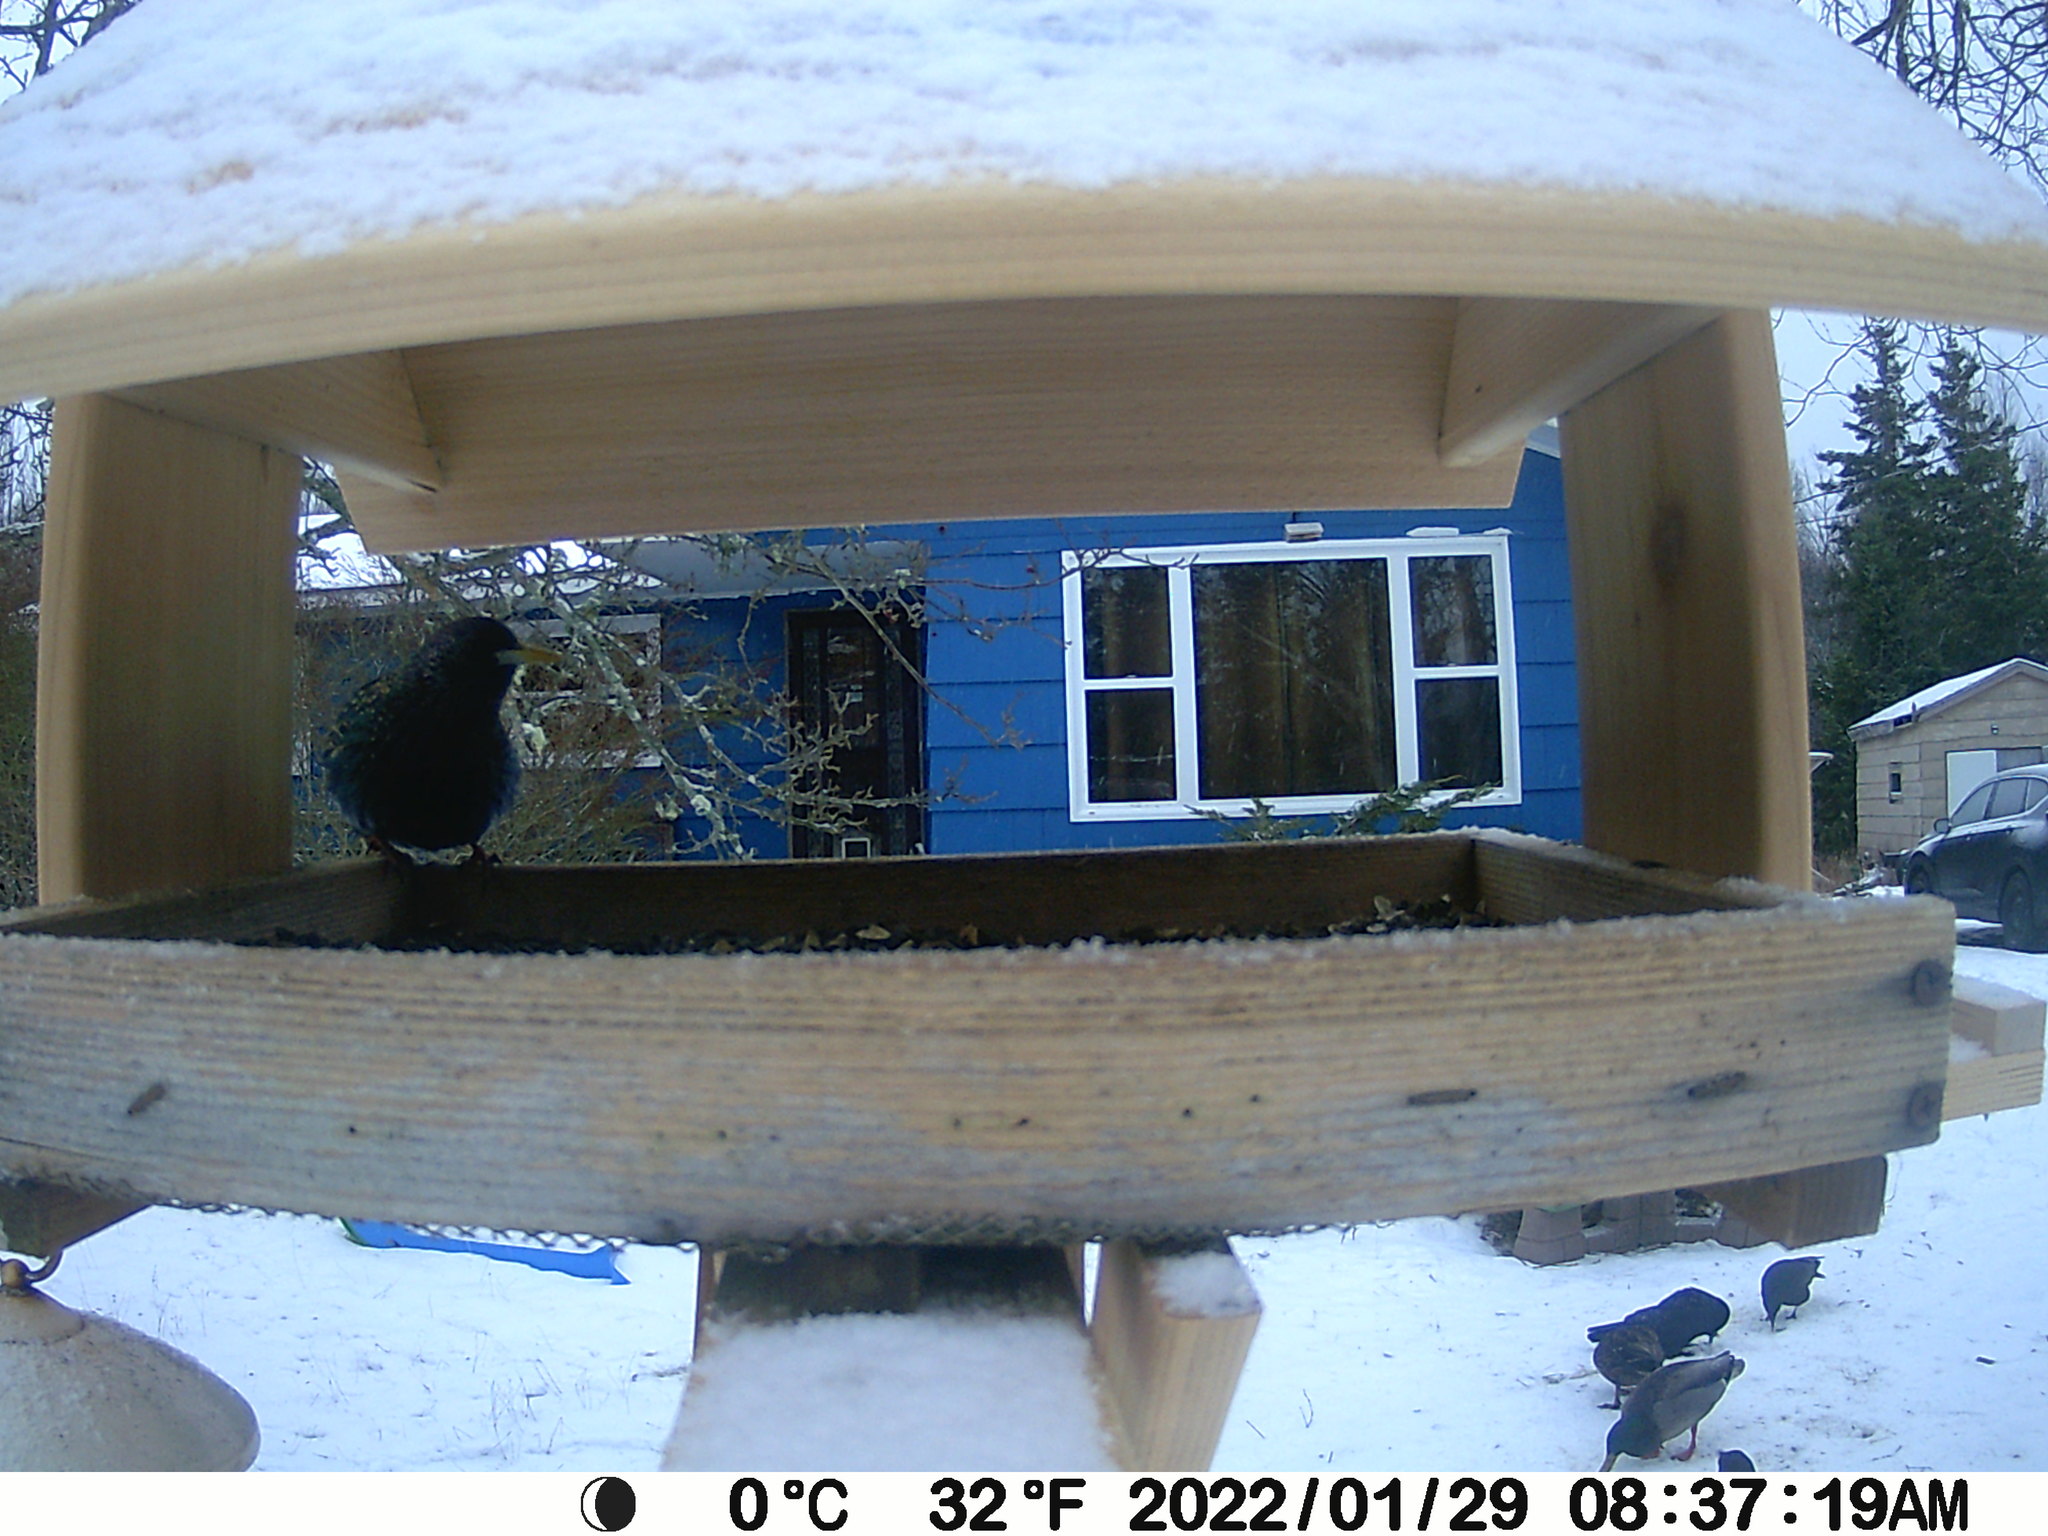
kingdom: Animalia
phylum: Chordata
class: Aves
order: Passeriformes
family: Sturnidae
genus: Sturnus
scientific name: Sturnus vulgaris
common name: Common starling
